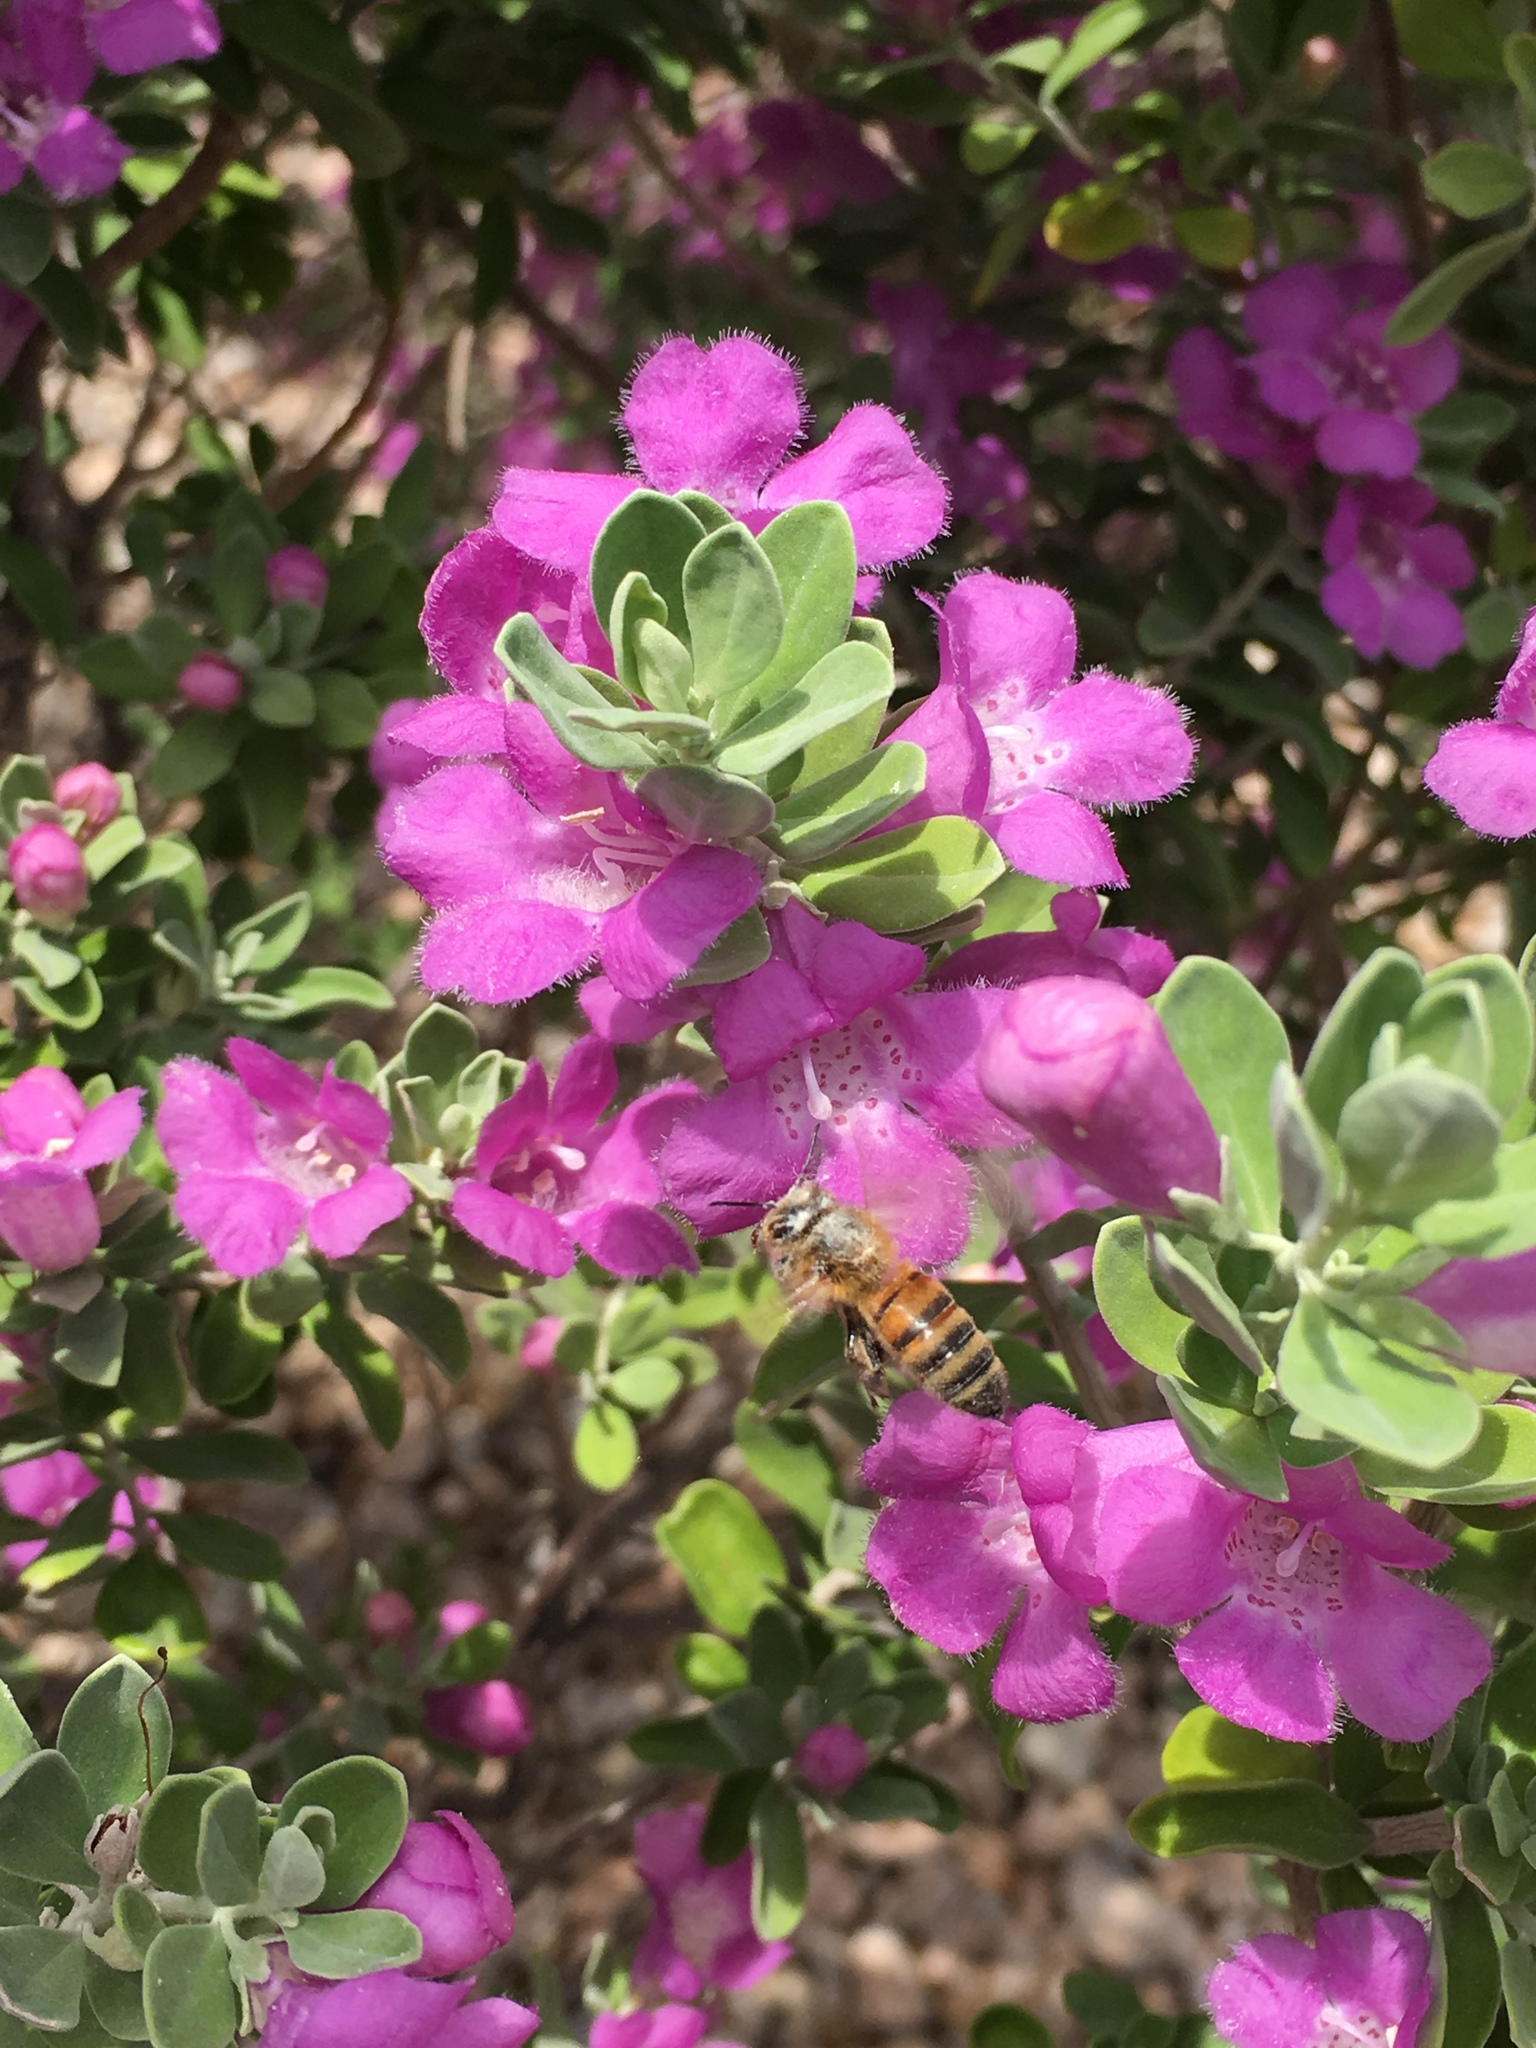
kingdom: Animalia
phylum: Arthropoda
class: Insecta
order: Hymenoptera
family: Apidae
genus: Apis
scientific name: Apis mellifera
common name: Honey bee
